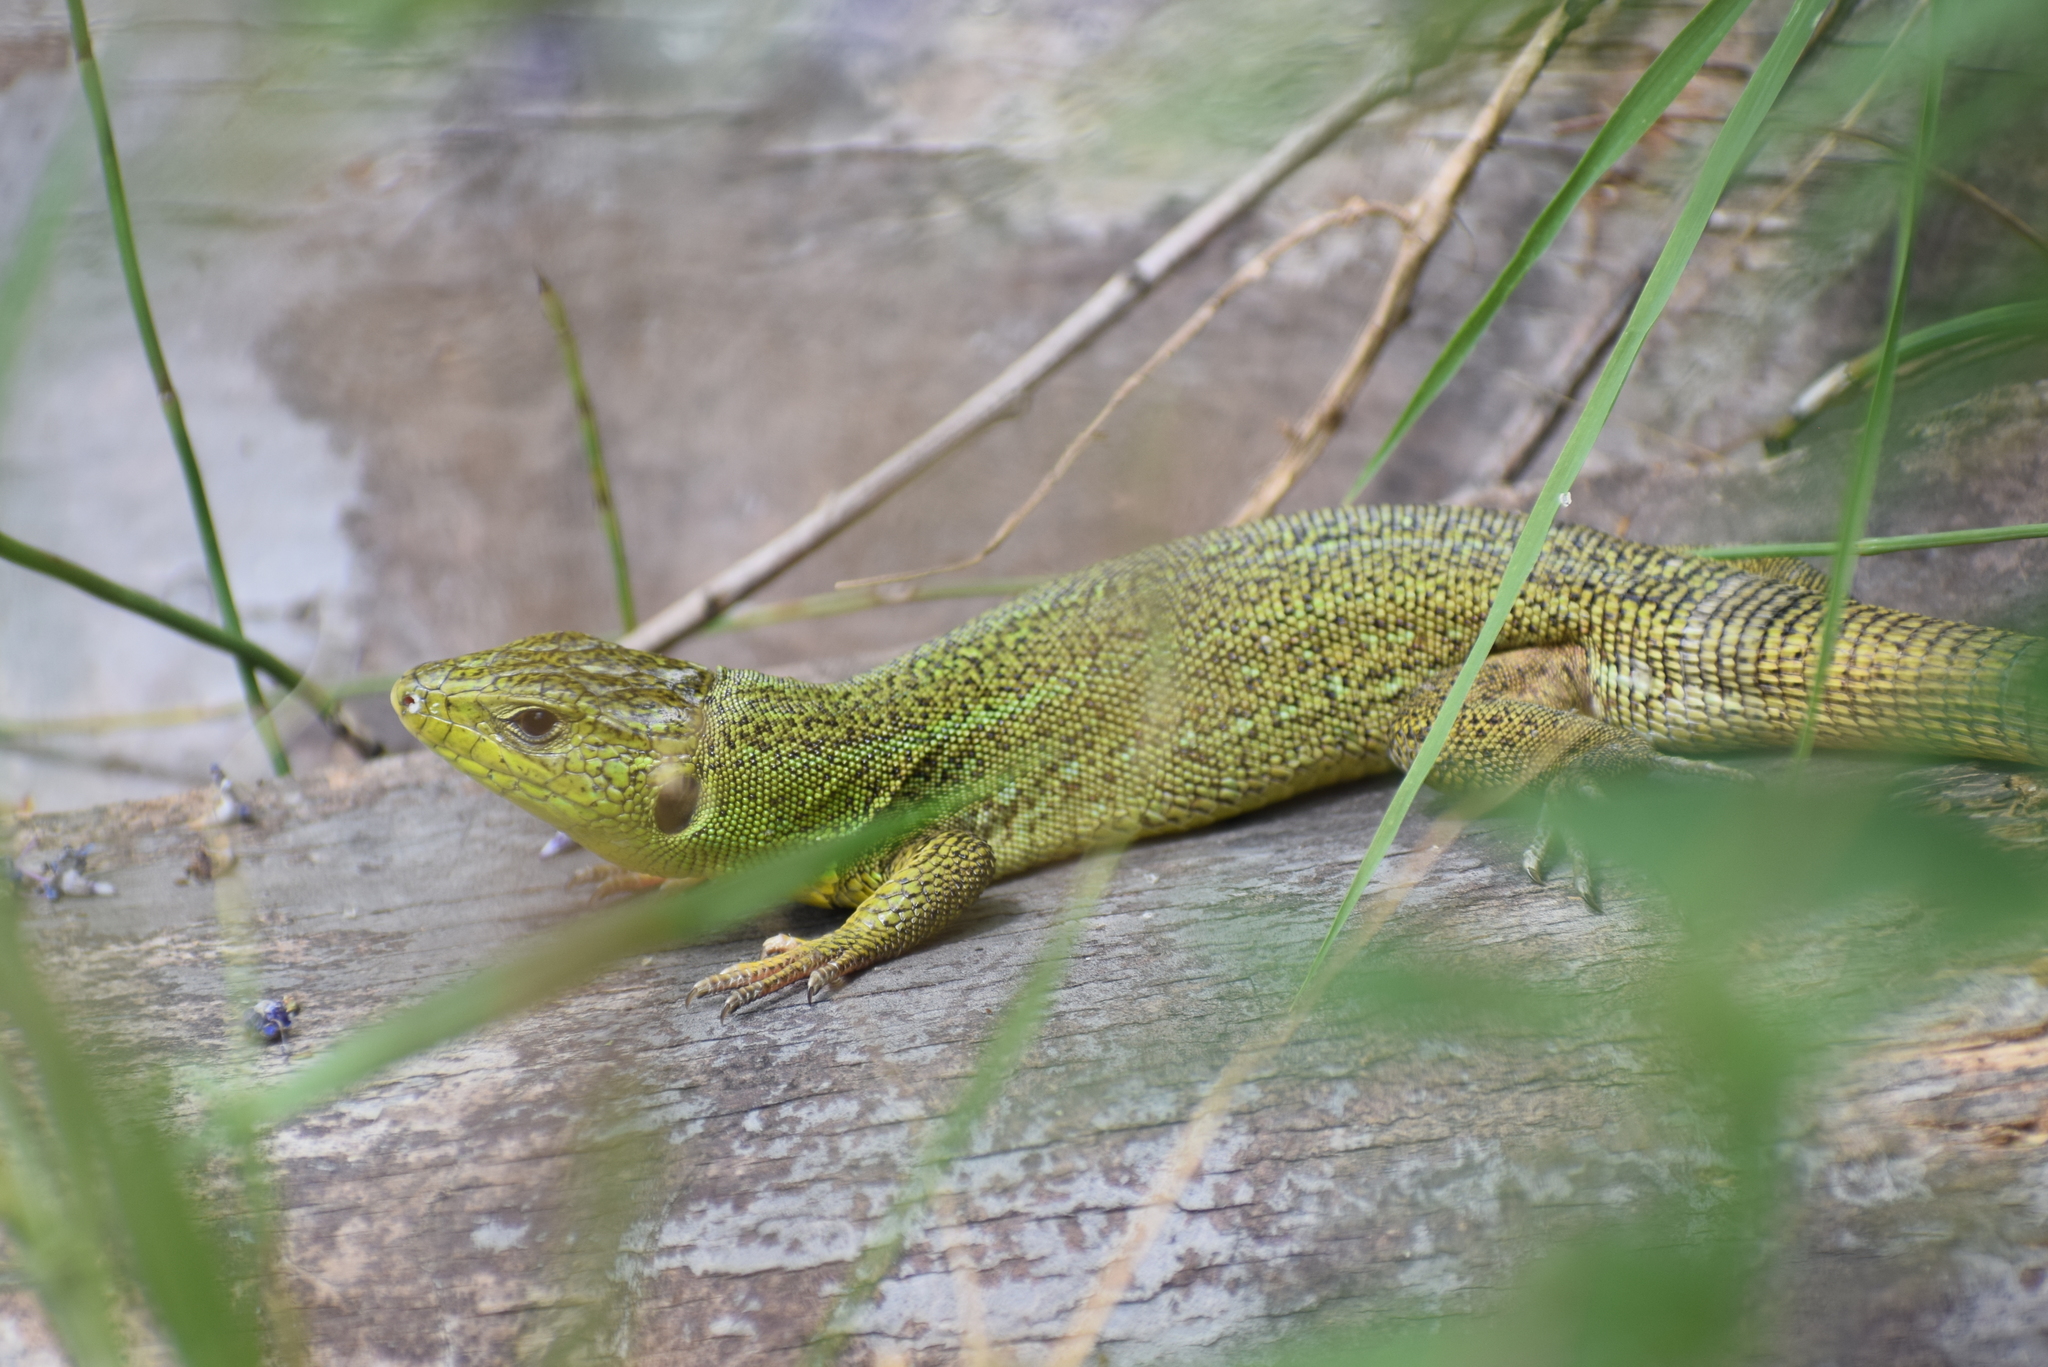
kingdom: Animalia
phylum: Chordata
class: Squamata
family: Lacertidae
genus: Lacerta
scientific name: Lacerta trilineata
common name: Balkan green lizard
